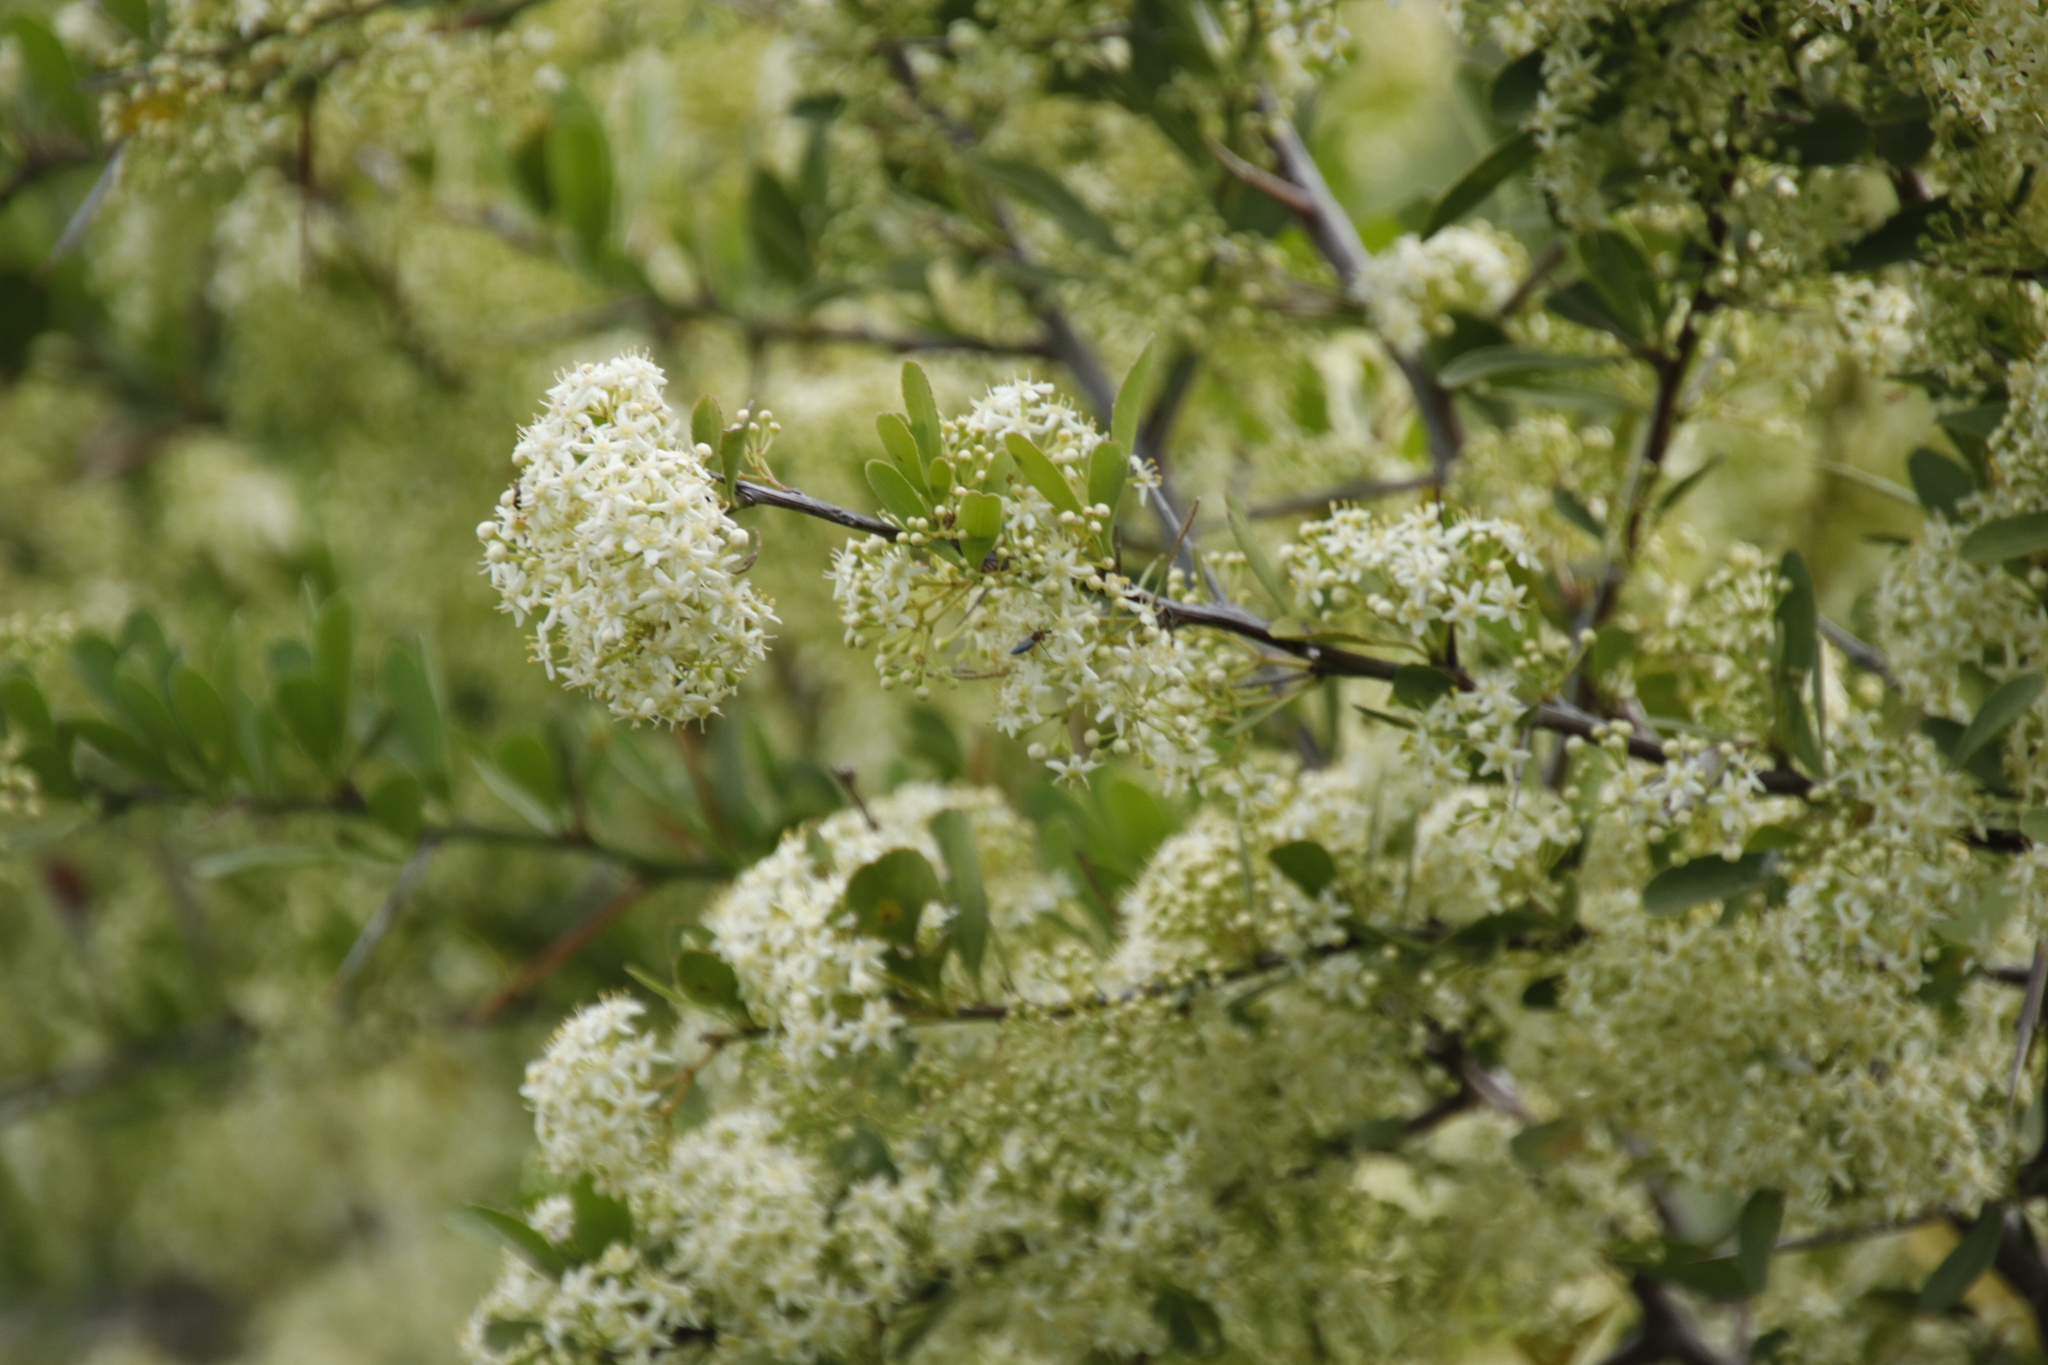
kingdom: Plantae
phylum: Tracheophyta
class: Magnoliopsida
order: Celastrales
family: Celastraceae
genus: Gymnosporia
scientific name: Gymnosporia buxifolia
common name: Common spike-thorn
